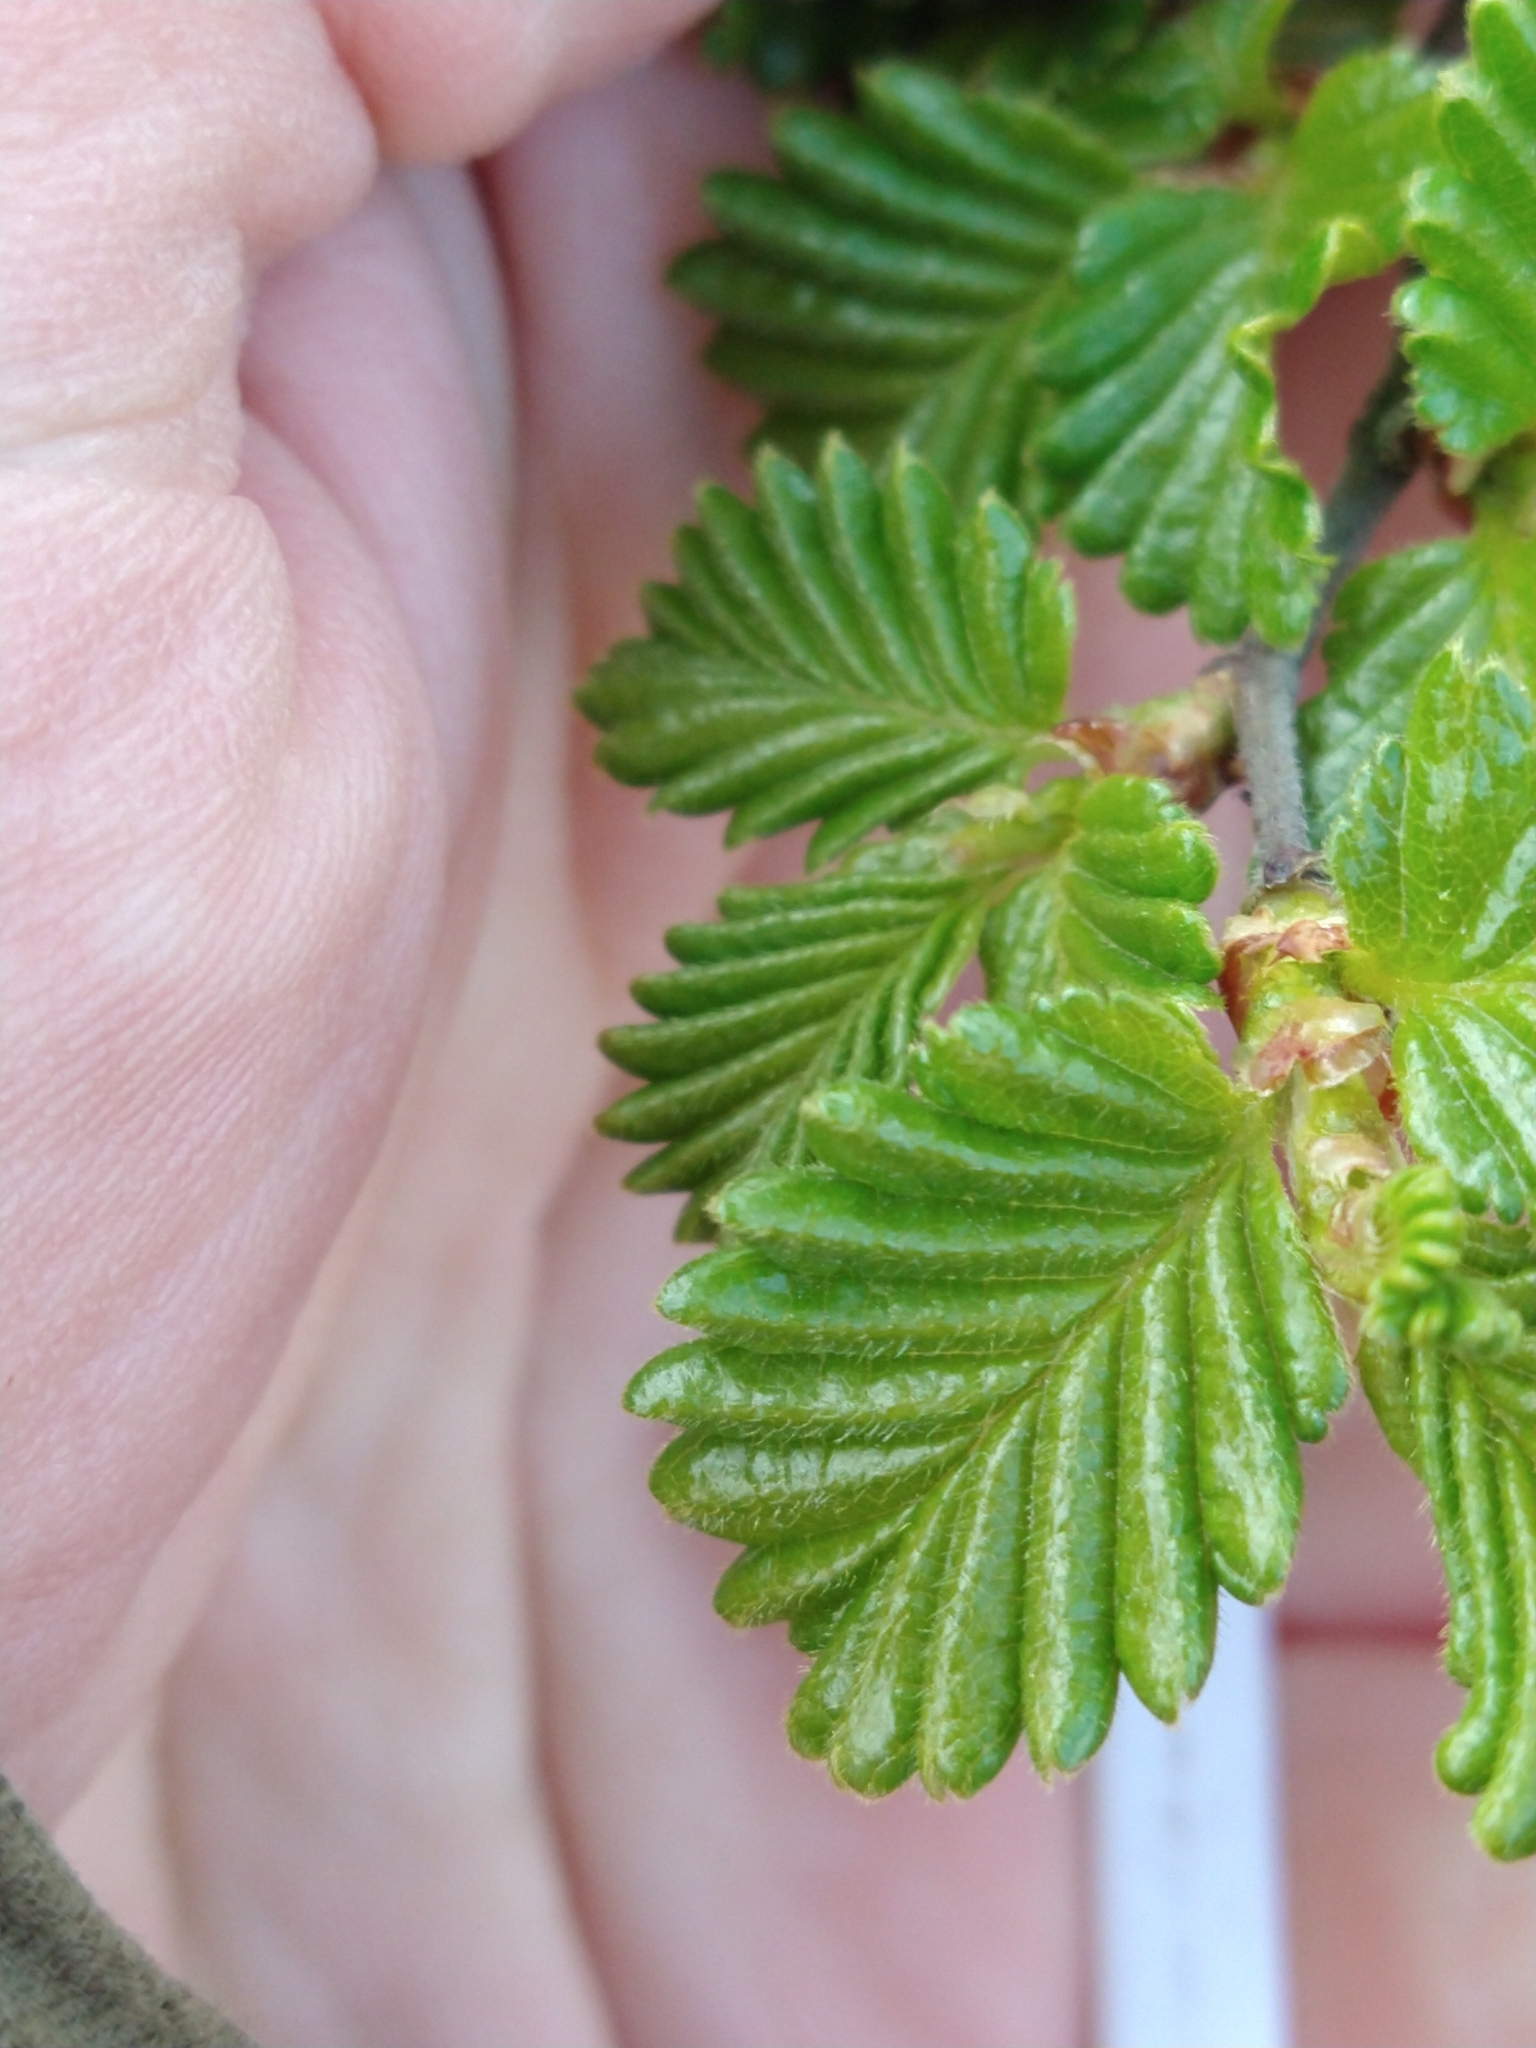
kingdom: Plantae
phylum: Tracheophyta
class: Magnoliopsida
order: Fagales
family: Nothofagaceae
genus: Nothofagus
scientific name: Nothofagus pumilio
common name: Lenga beech
